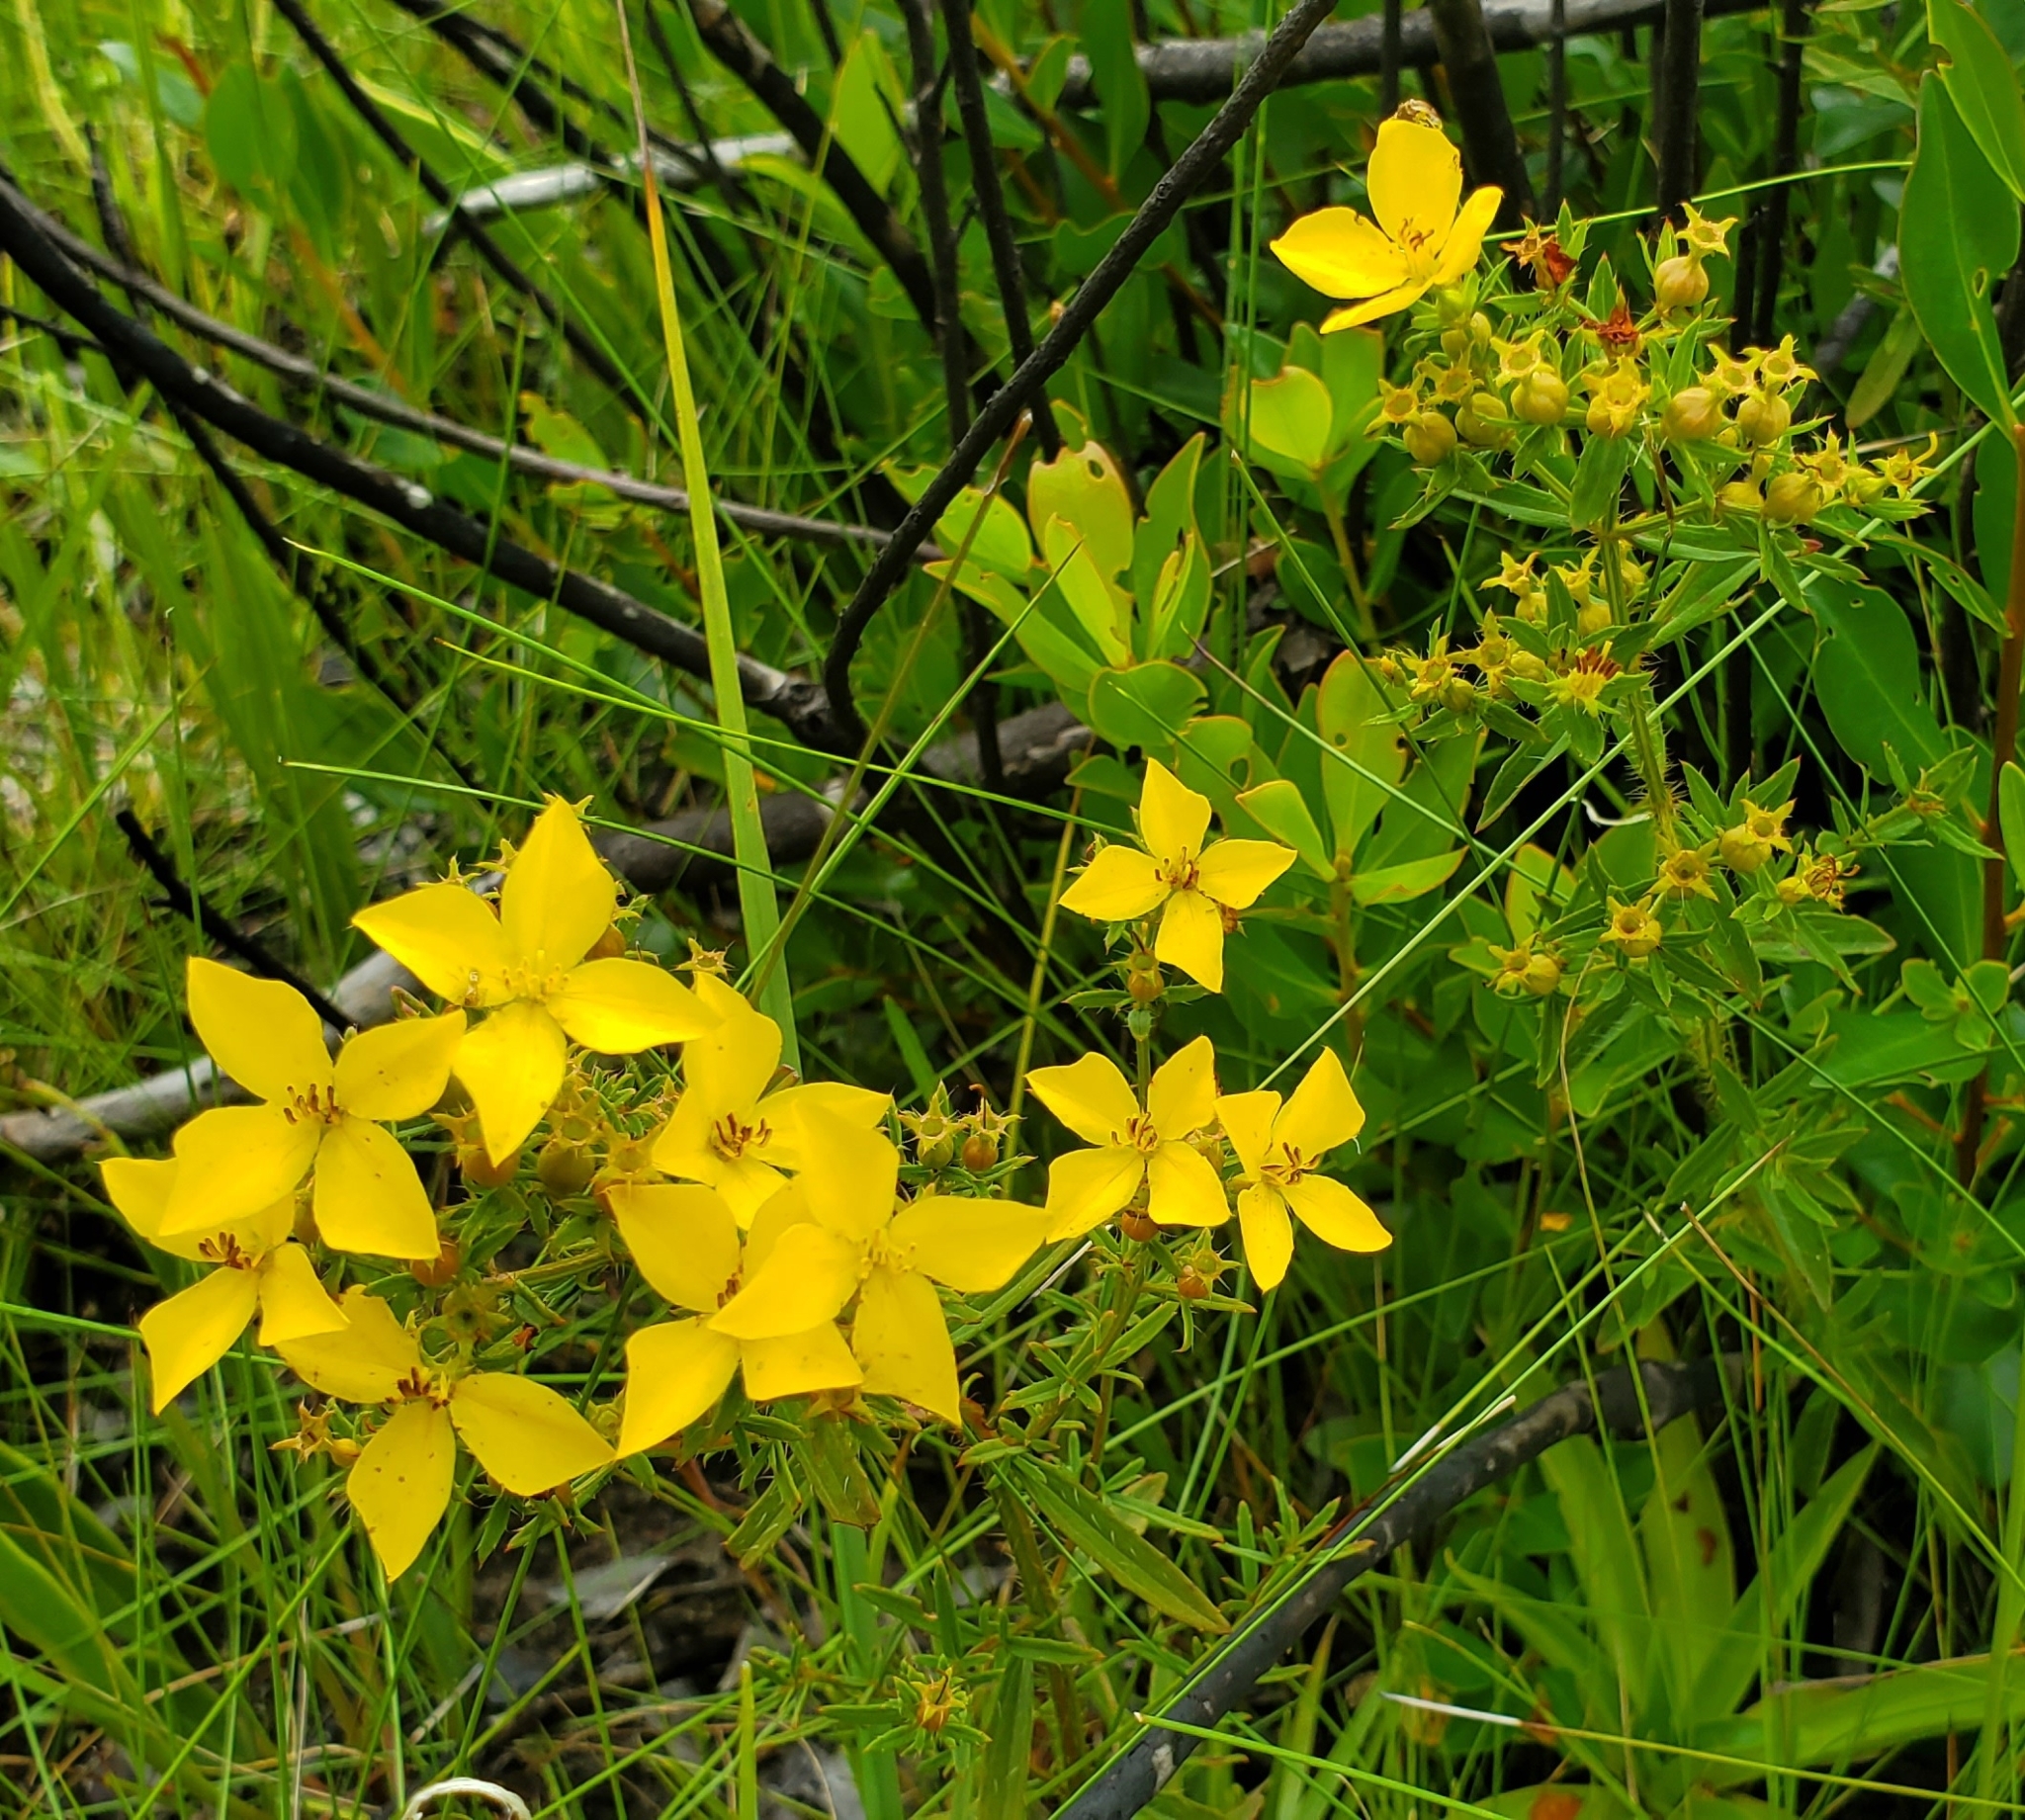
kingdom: Plantae
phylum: Tracheophyta
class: Magnoliopsida
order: Myrtales
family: Melastomataceae
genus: Rhexia
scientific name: Rhexia lutea
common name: Golden meadow-beauty
